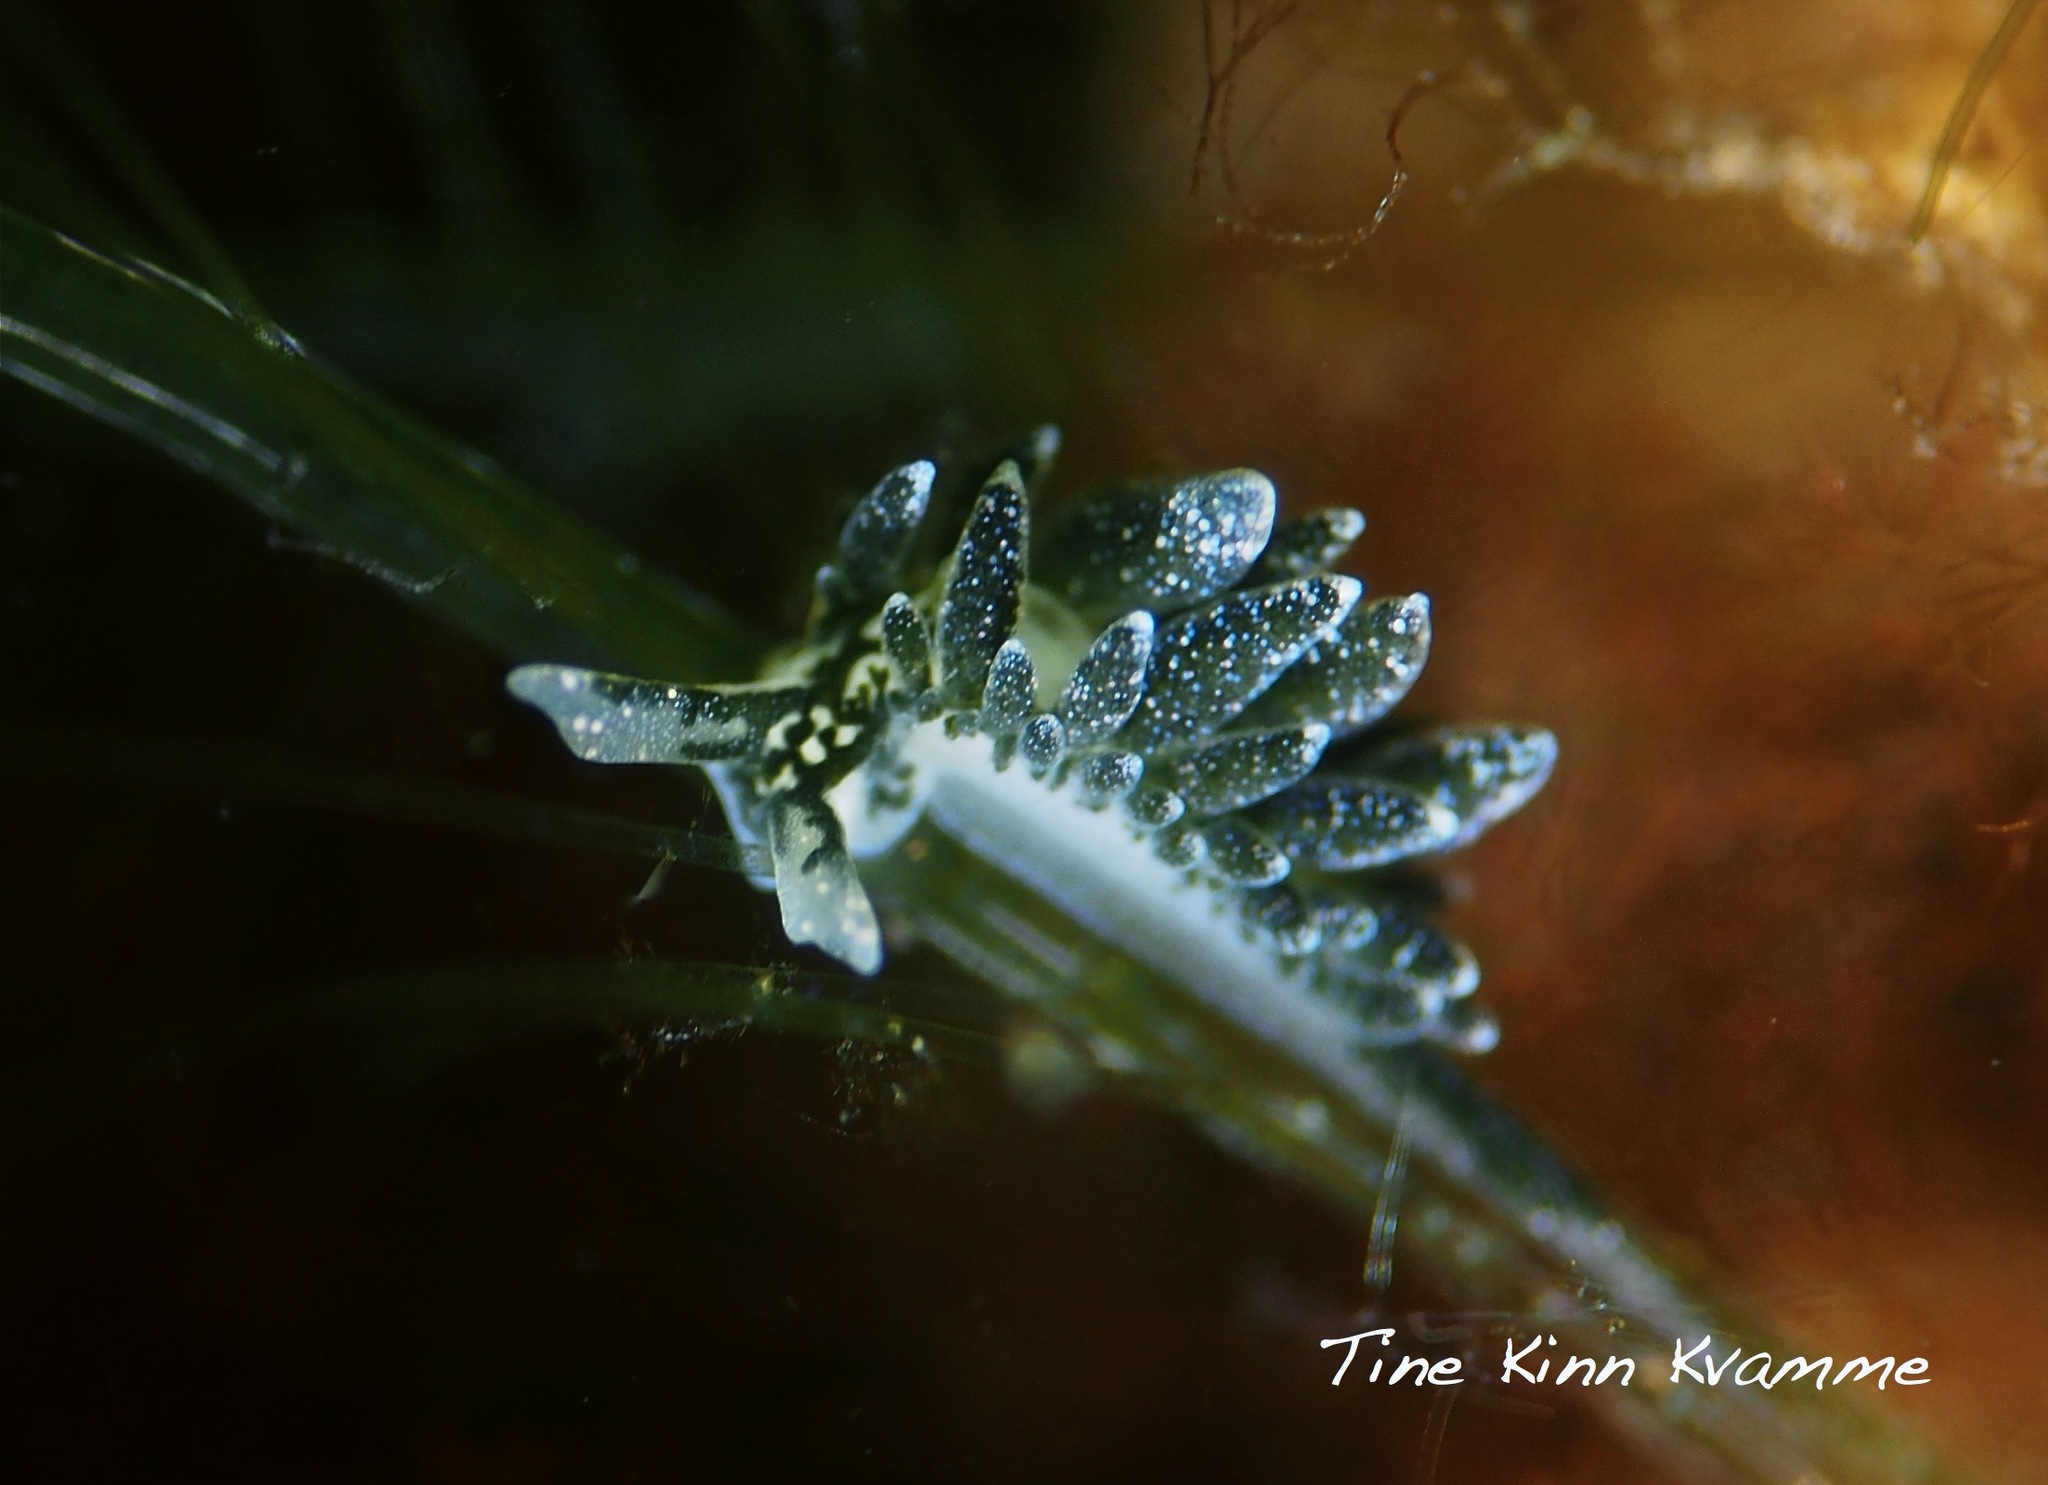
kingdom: Animalia
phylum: Mollusca
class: Gastropoda
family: Limapontiidae
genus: Placida
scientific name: Placida dendritica
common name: Dendritic nudibranch
